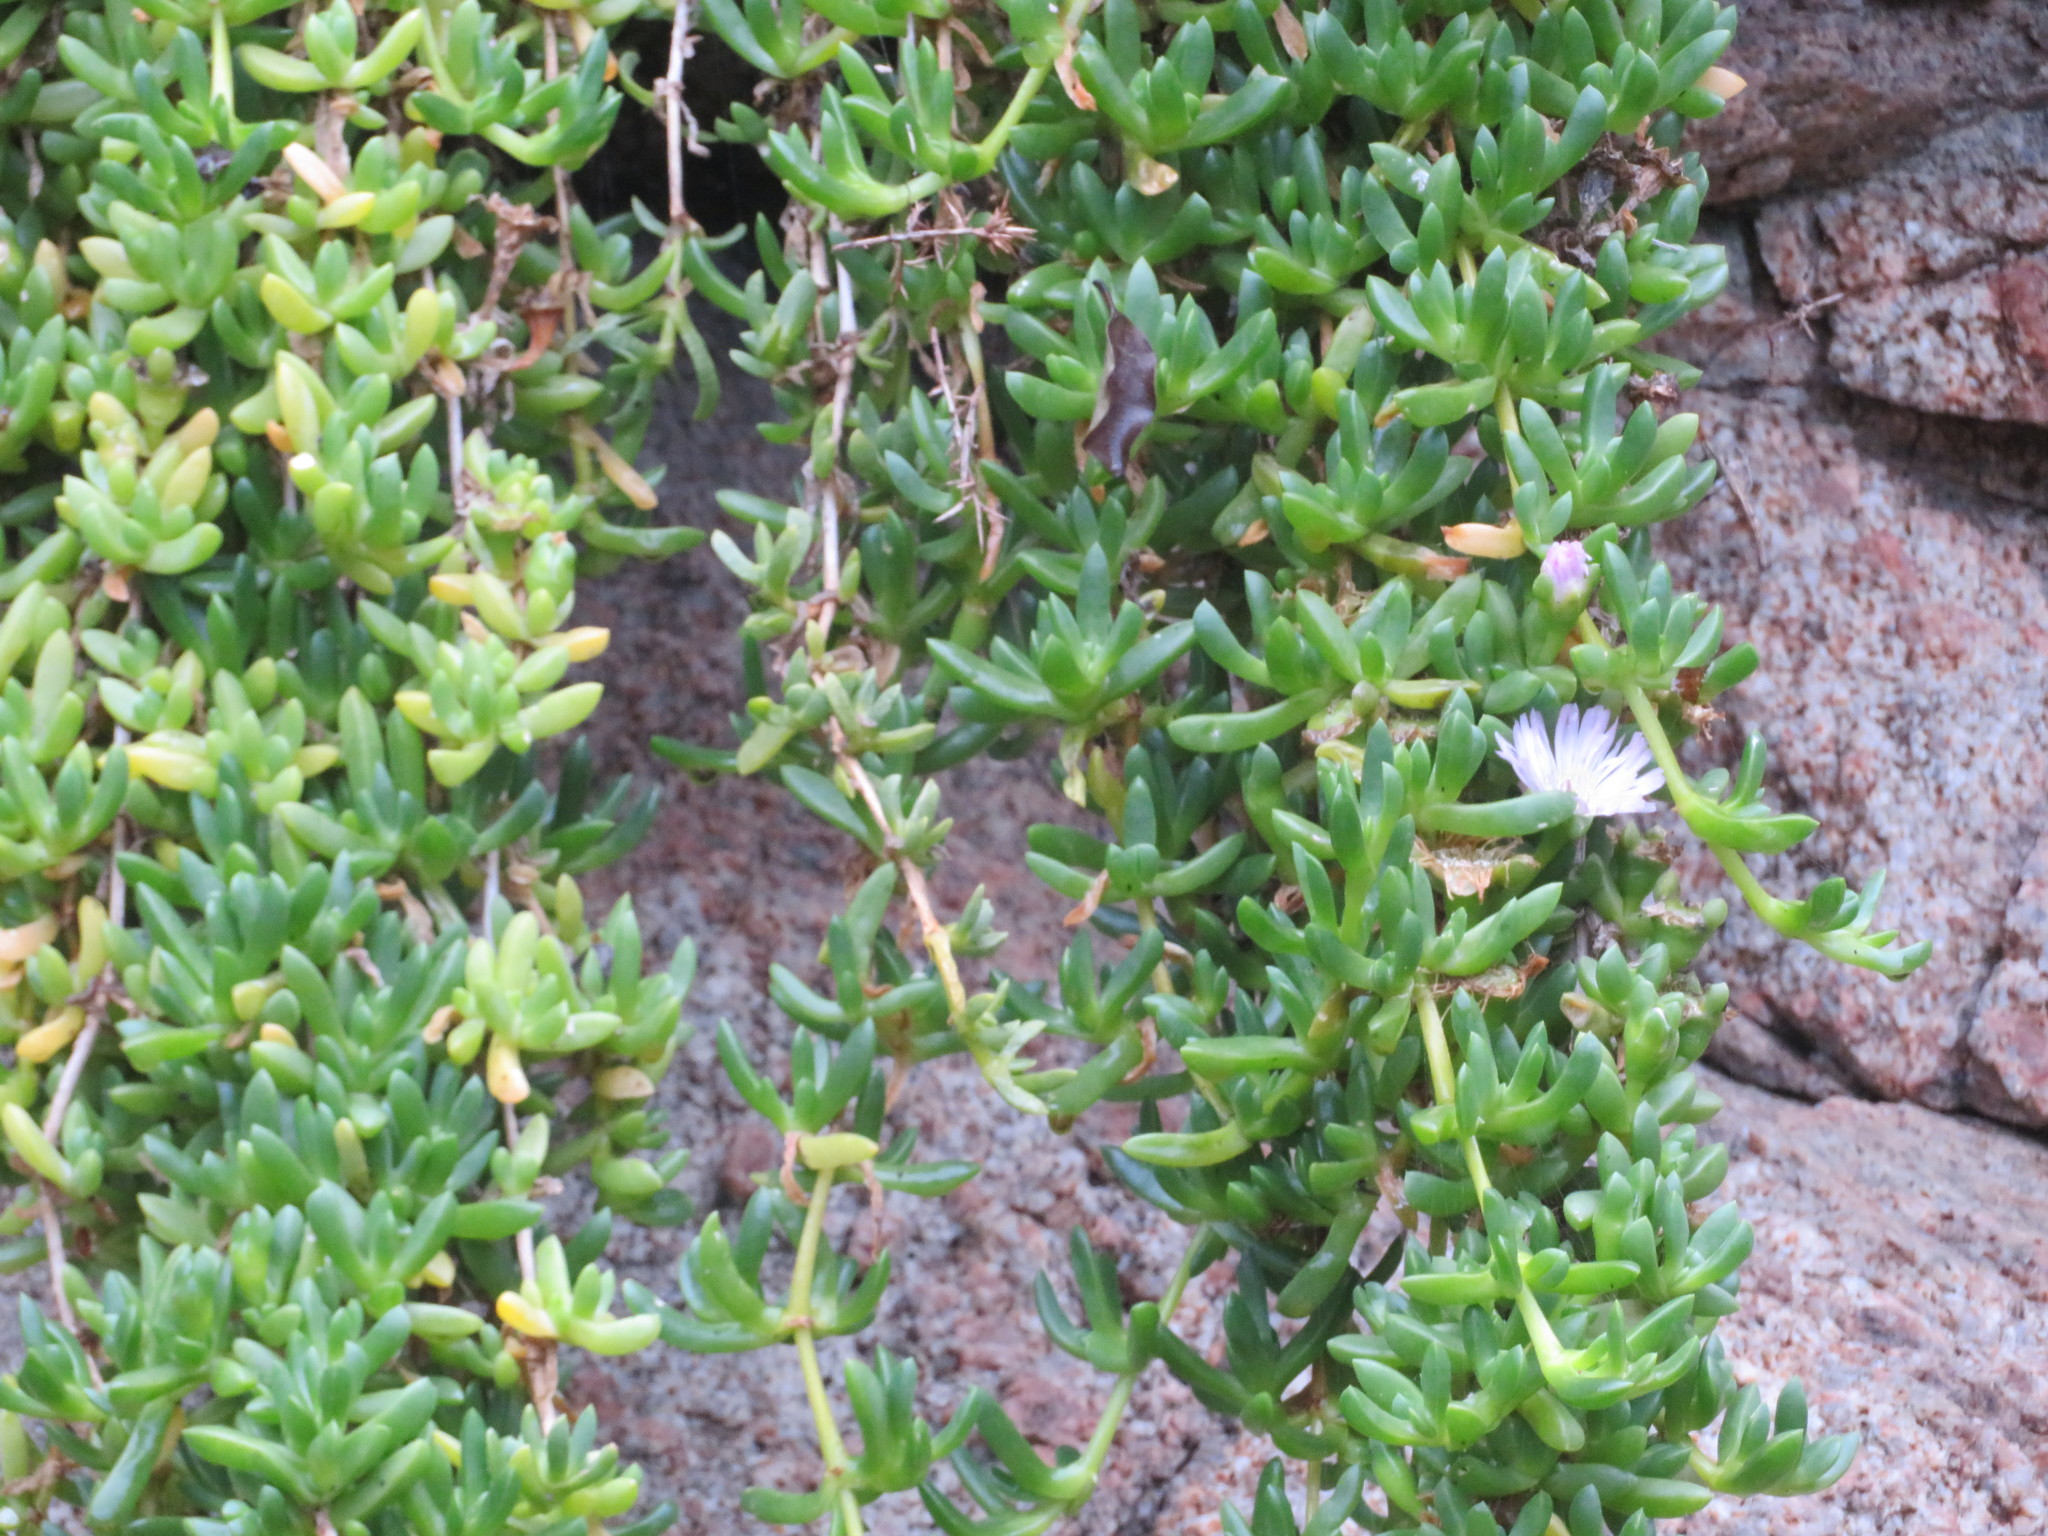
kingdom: Plantae
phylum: Tracheophyta
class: Magnoliopsida
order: Caryophyllales
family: Aizoaceae
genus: Disphyma
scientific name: Disphyma australe
